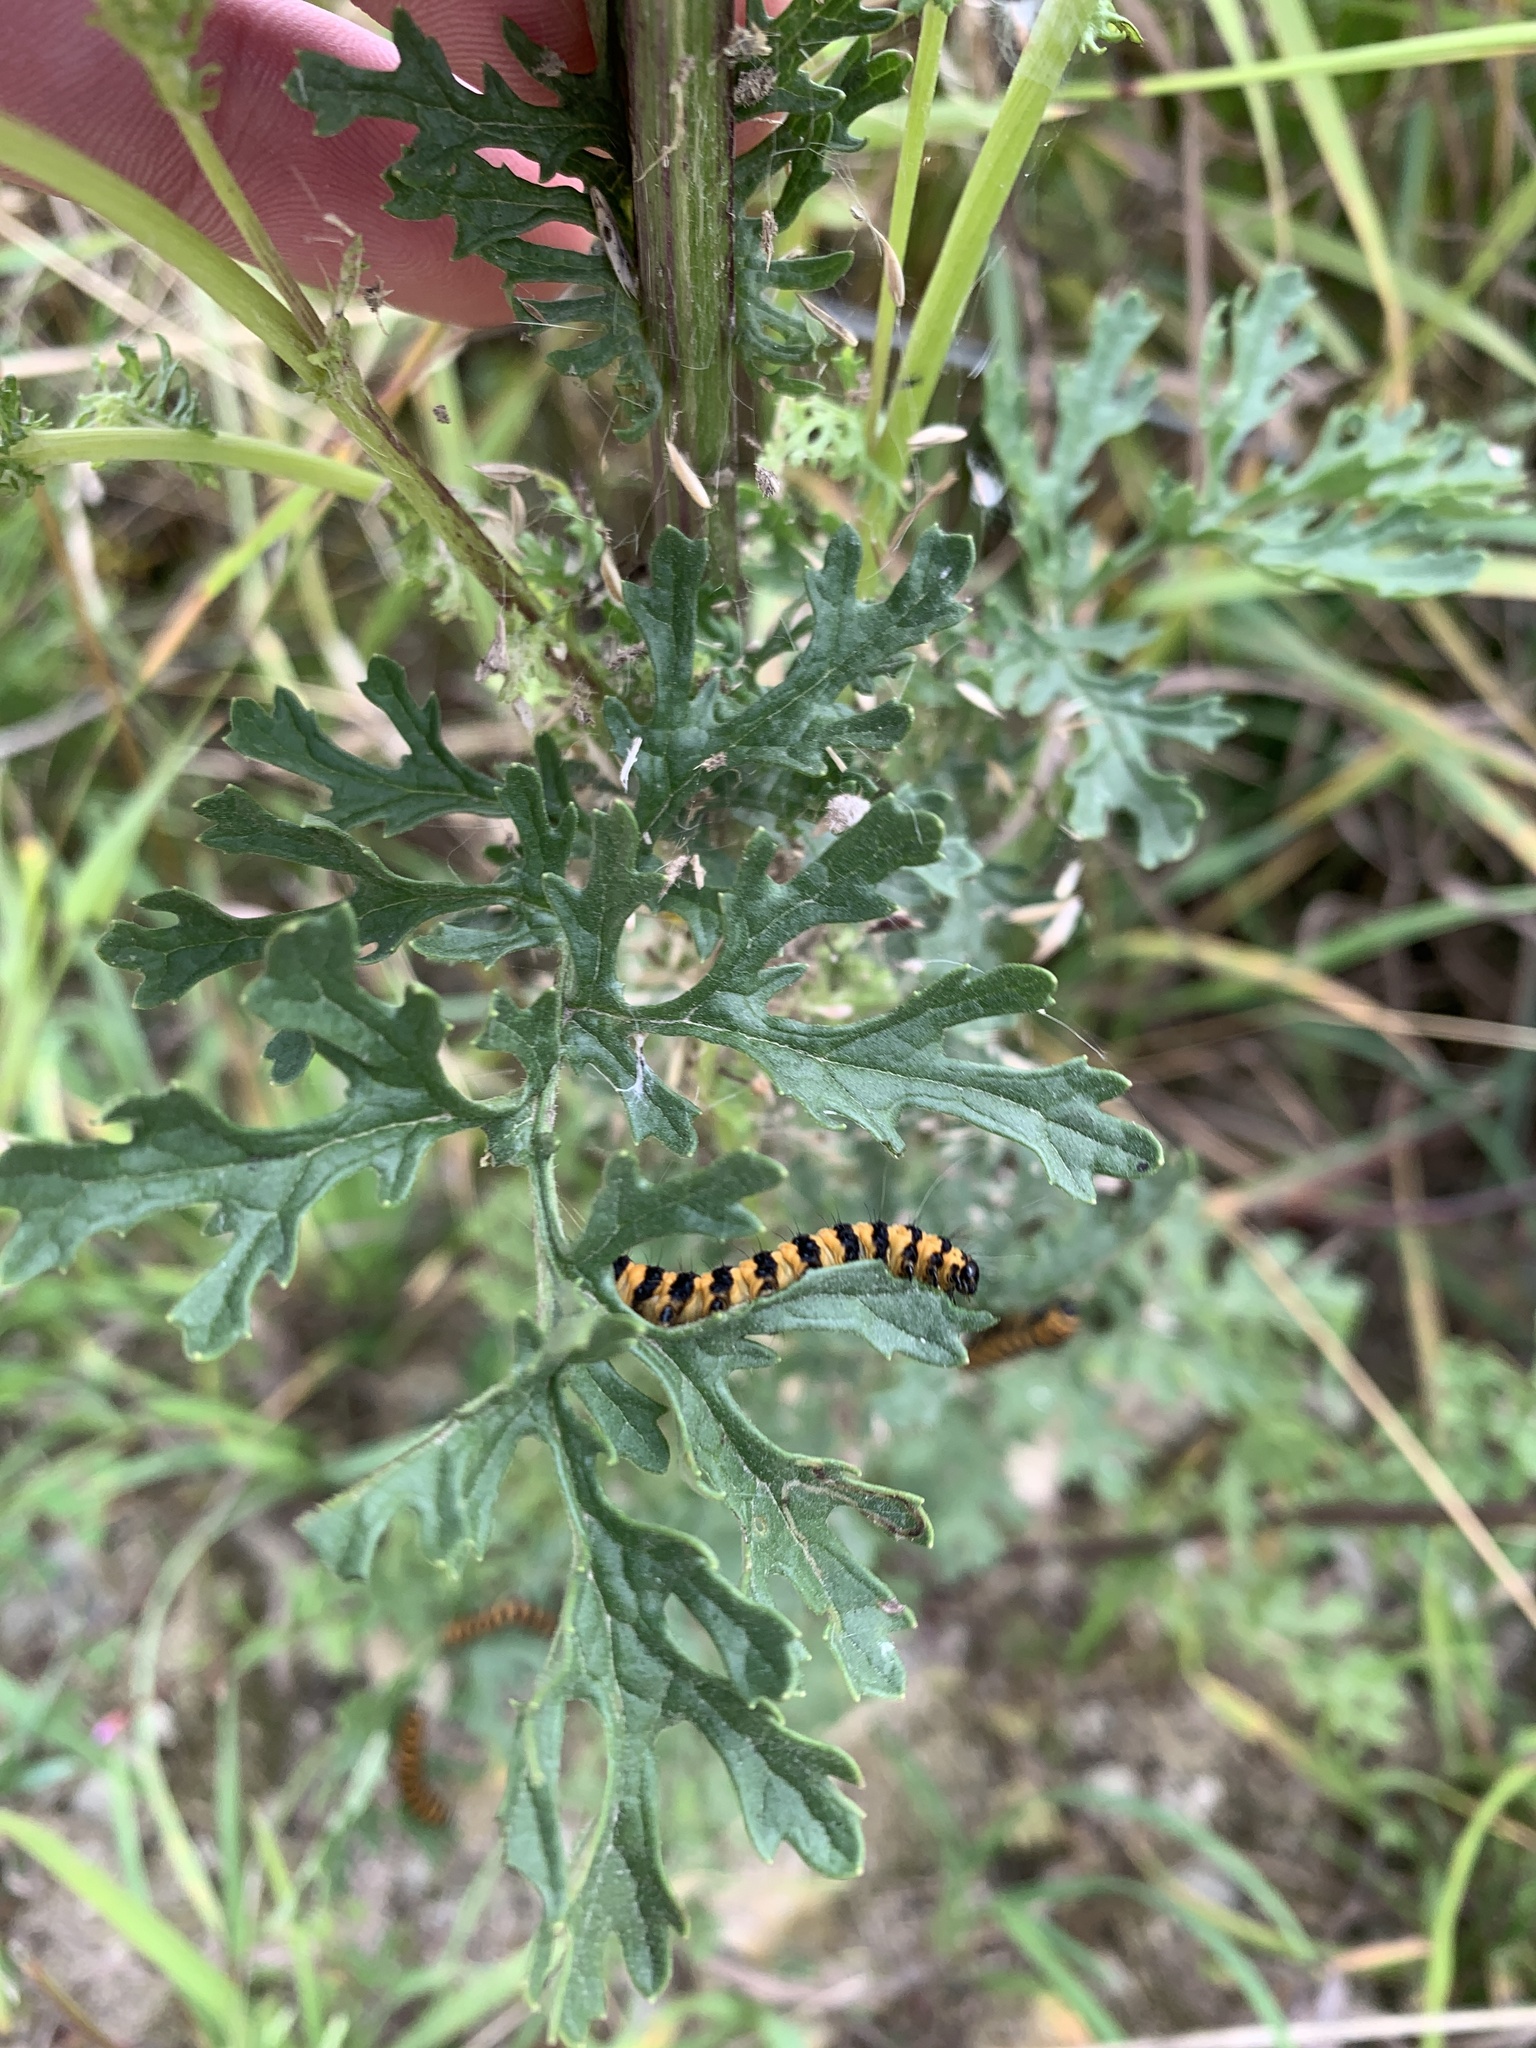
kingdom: Animalia
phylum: Arthropoda
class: Insecta
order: Lepidoptera
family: Erebidae
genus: Tyria
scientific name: Tyria jacobaeae
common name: Cinnabar
